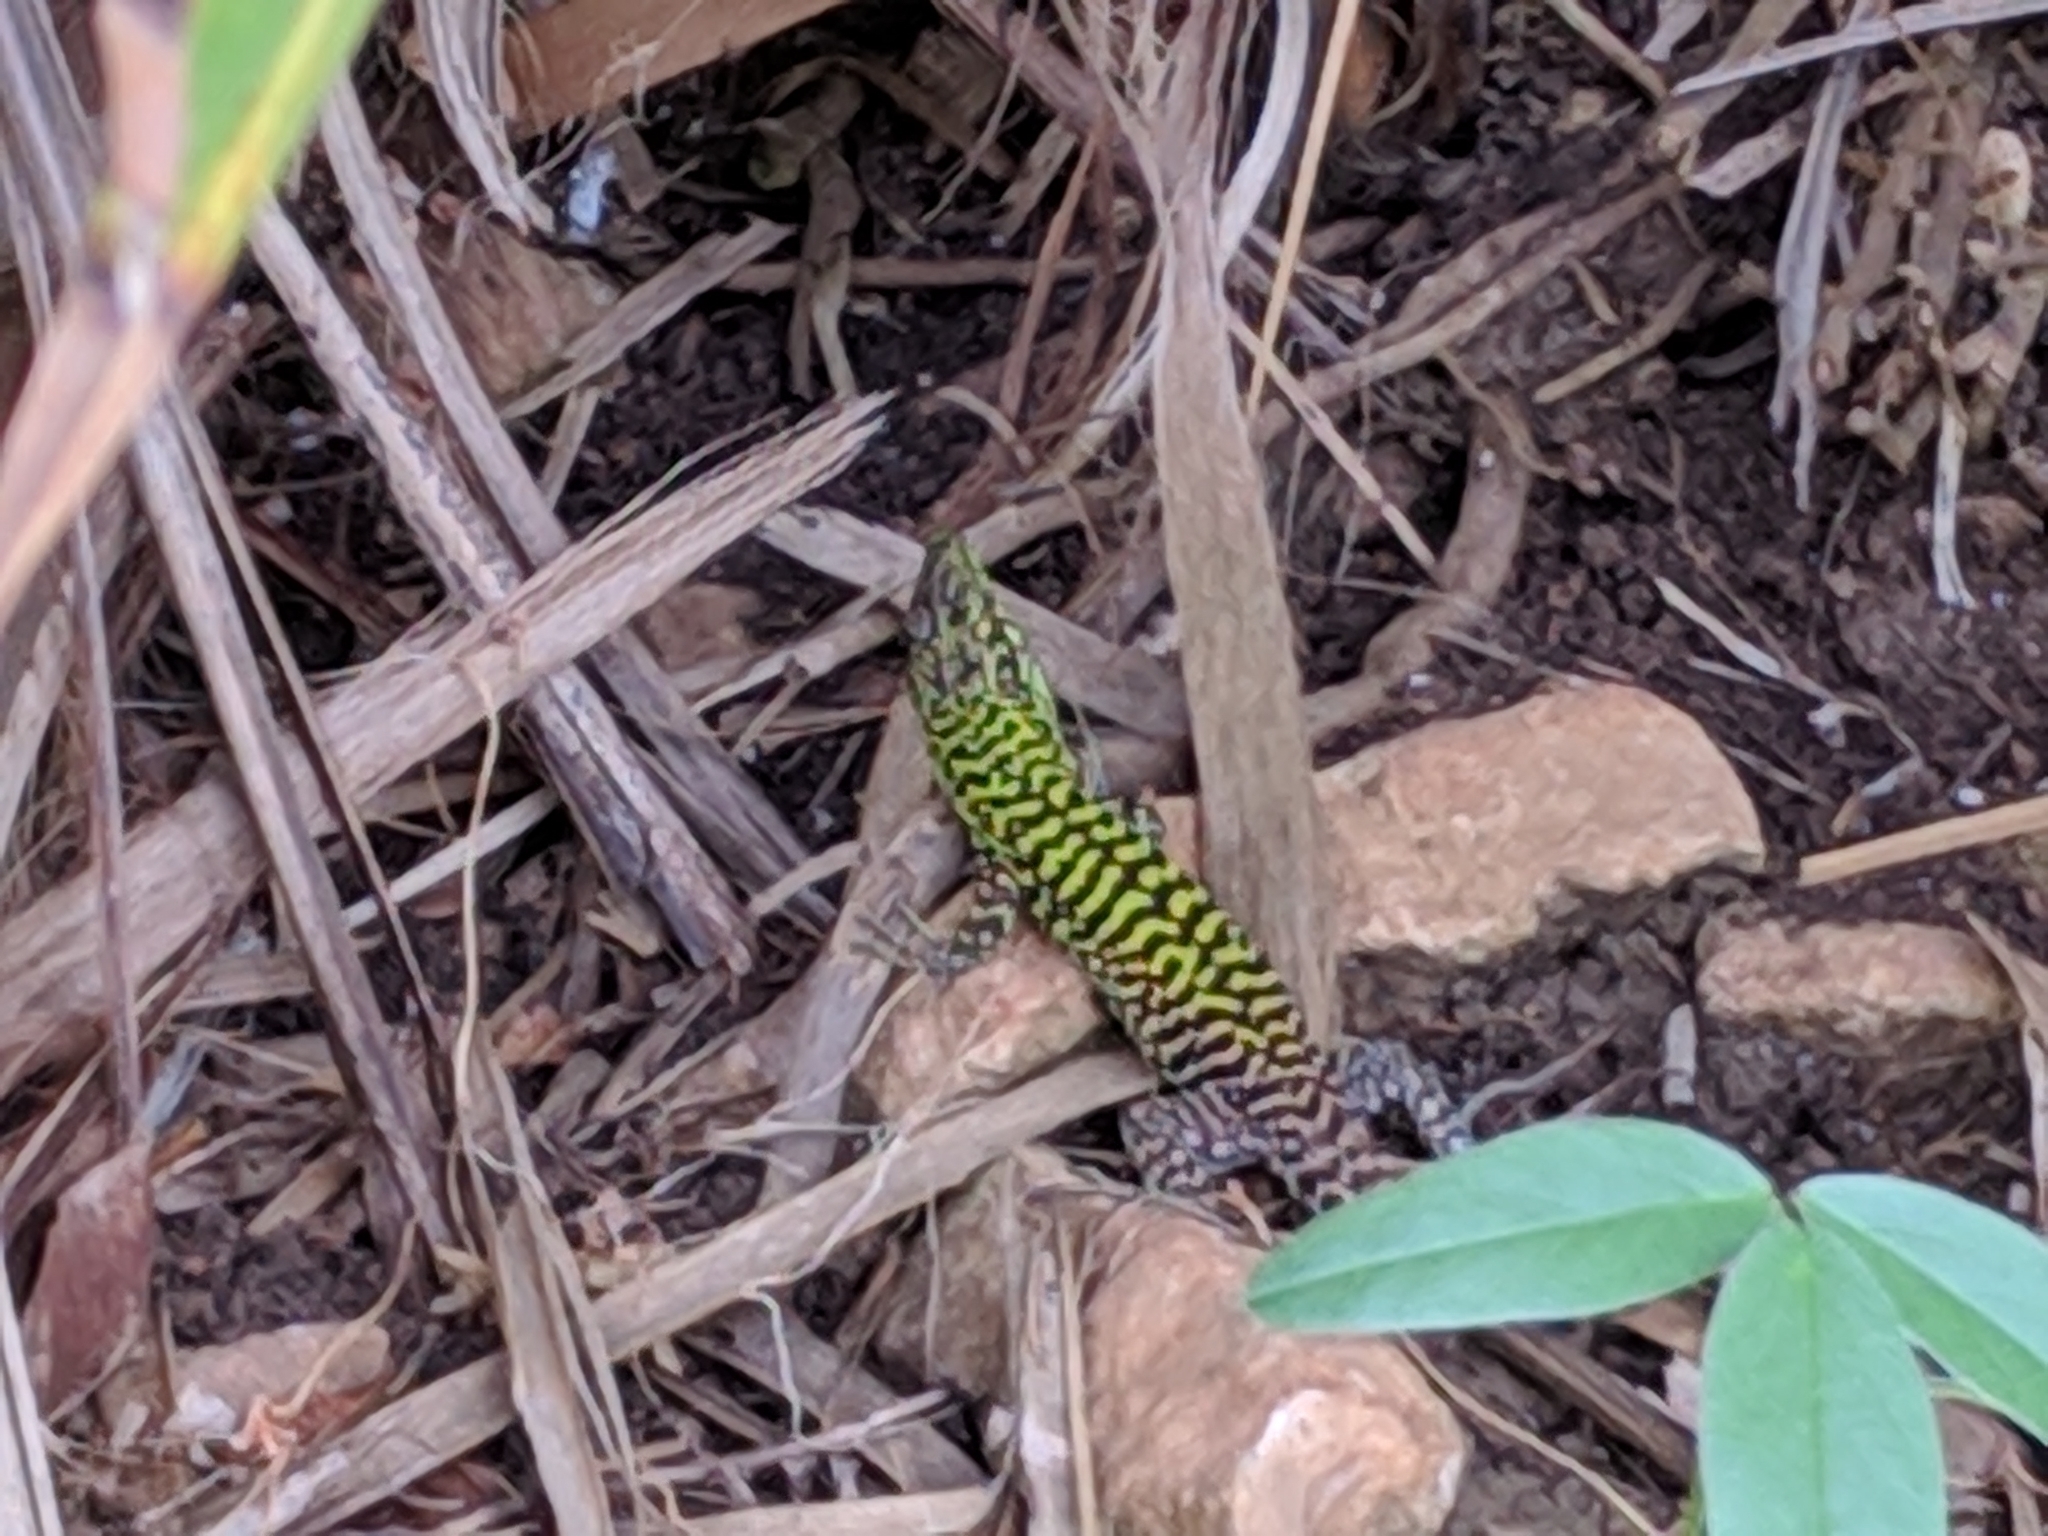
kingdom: Animalia
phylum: Chordata
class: Squamata
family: Lacertidae
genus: Podarcis
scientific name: Podarcis siculus
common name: Italian wall lizard
